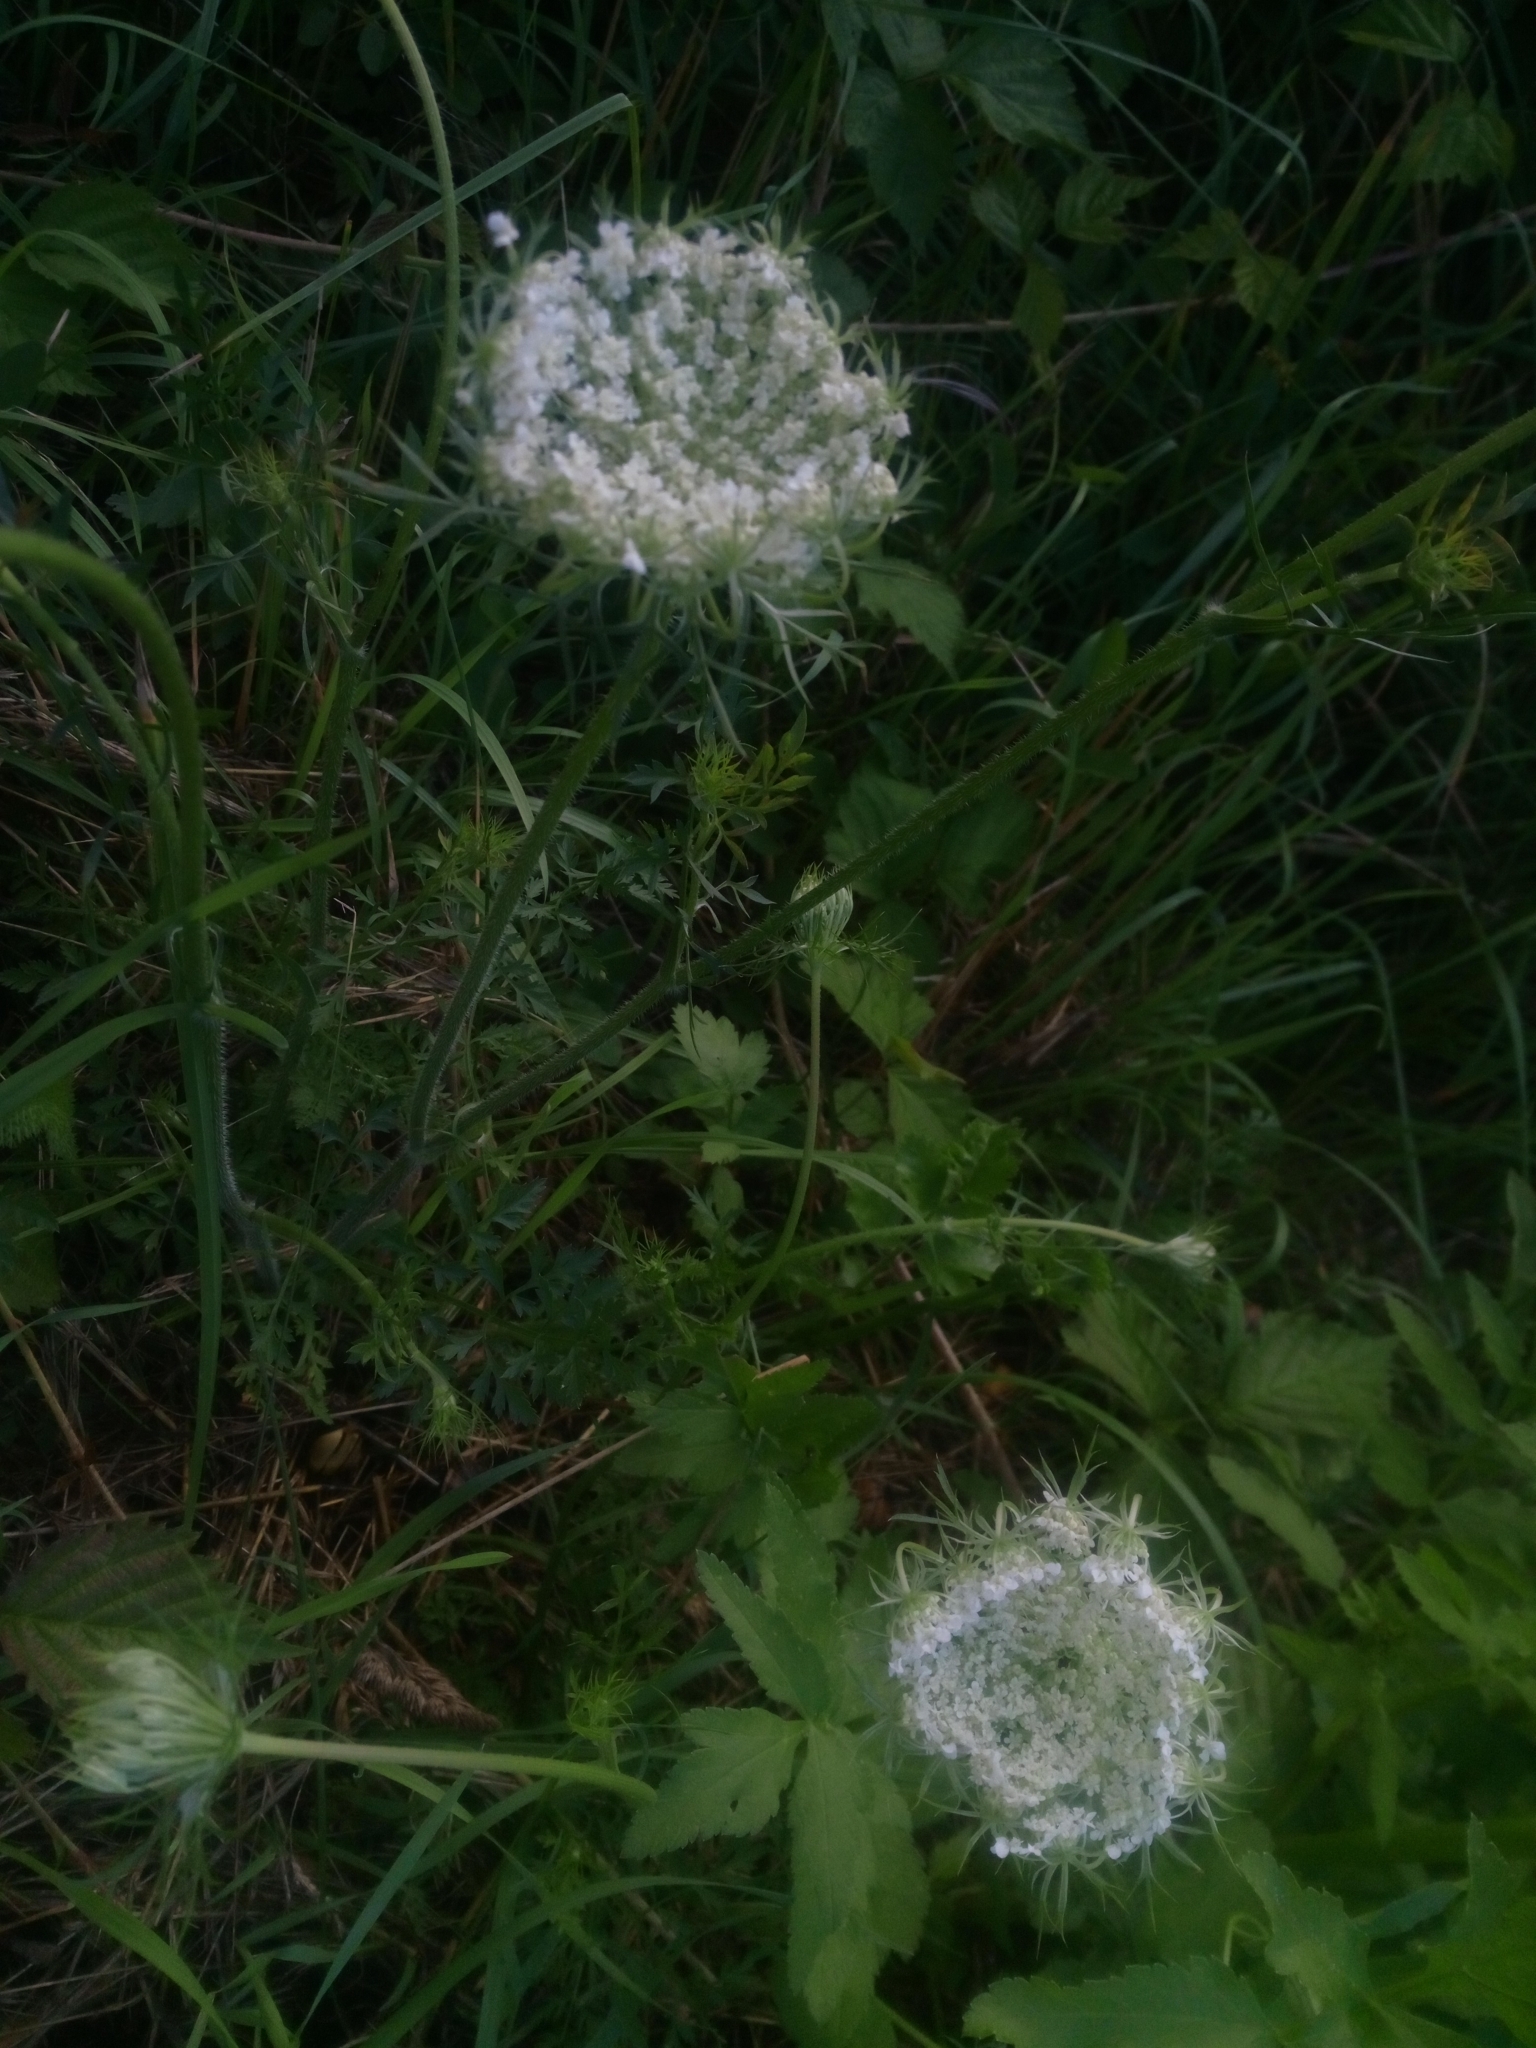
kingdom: Plantae
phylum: Tracheophyta
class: Magnoliopsida
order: Apiales
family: Apiaceae
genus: Daucus
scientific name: Daucus carota
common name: Wild carrot
